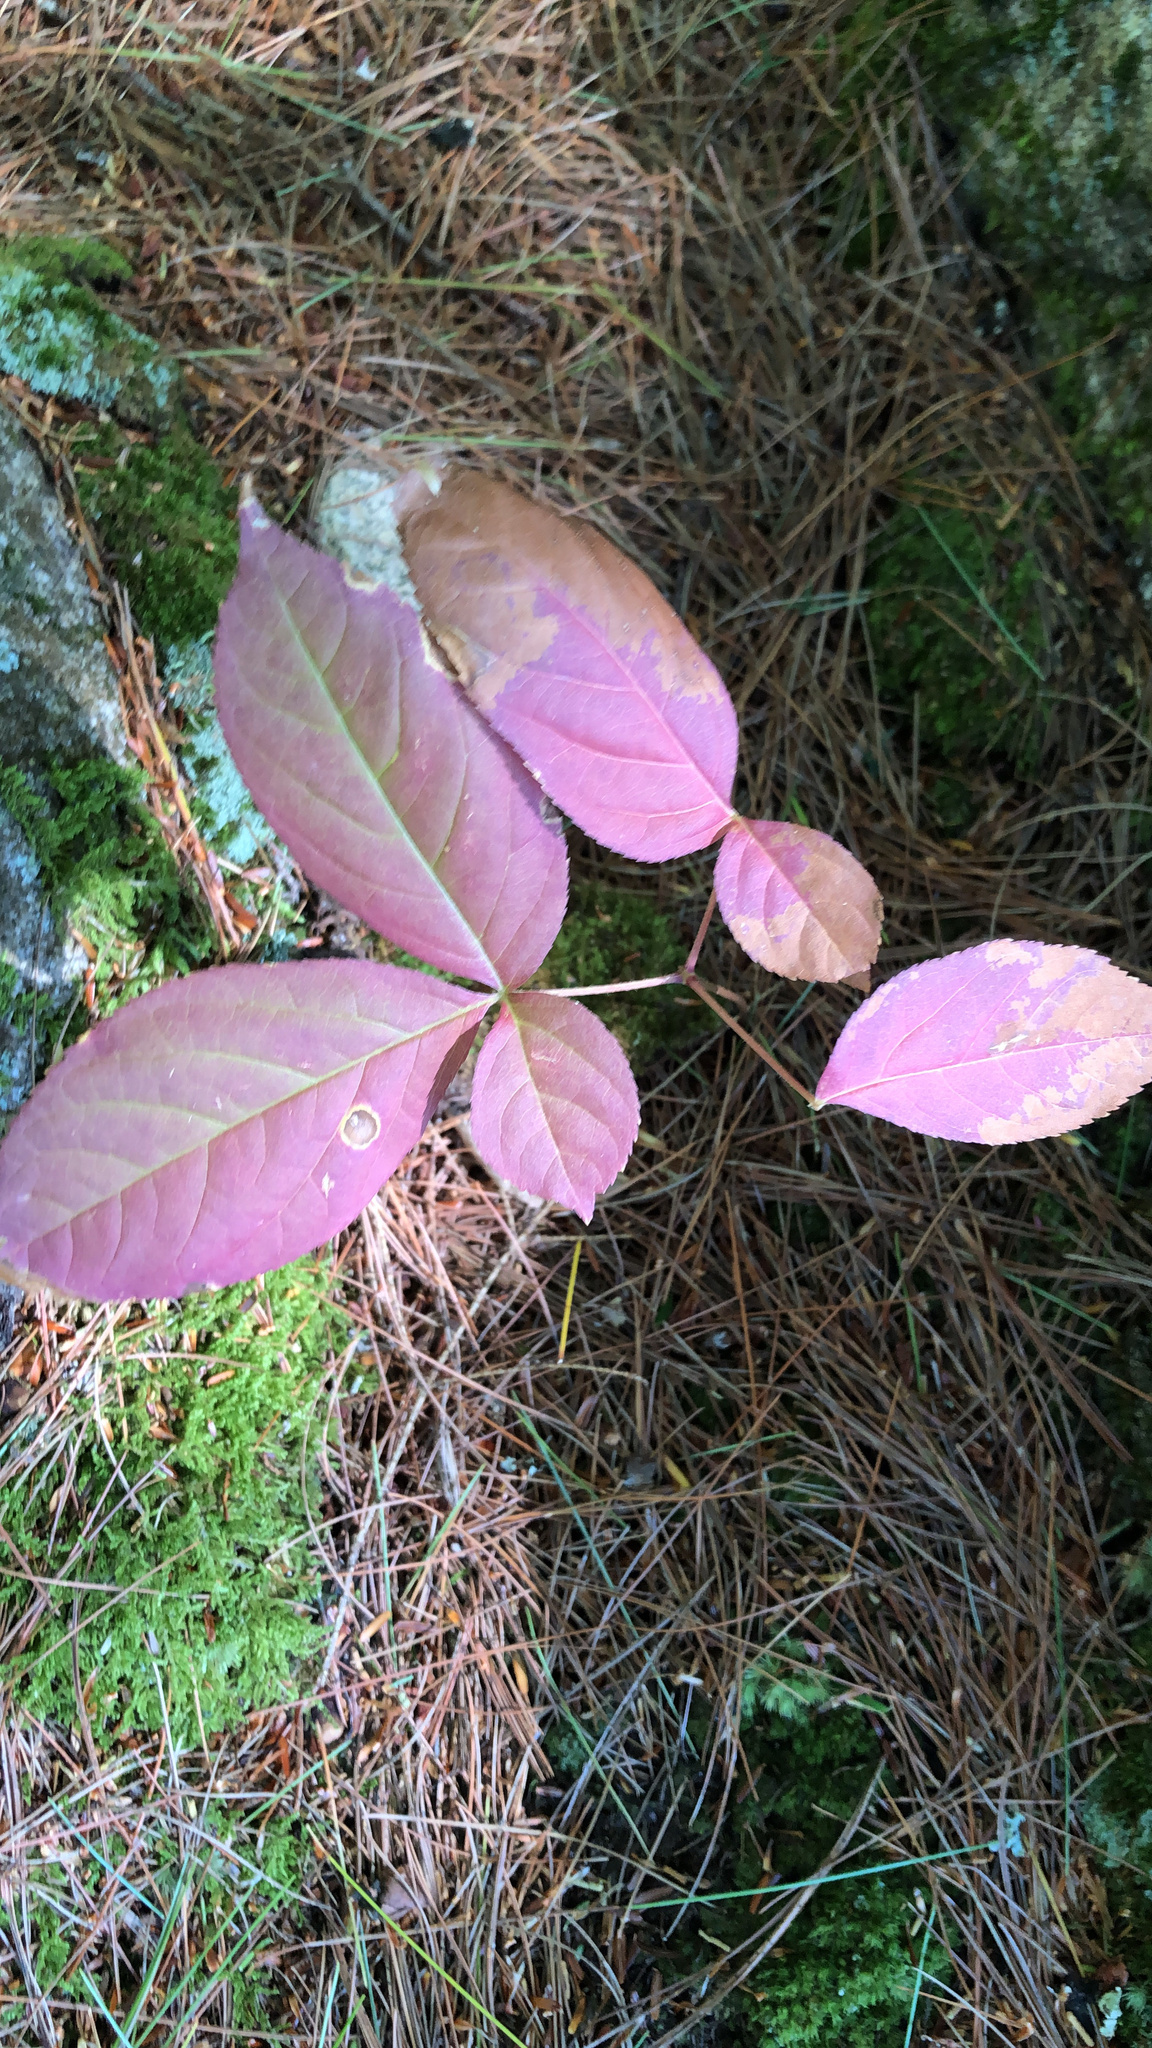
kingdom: Plantae
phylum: Tracheophyta
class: Magnoliopsida
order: Apiales
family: Araliaceae
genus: Aralia
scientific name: Aralia nudicaulis
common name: Wild sarsaparilla
